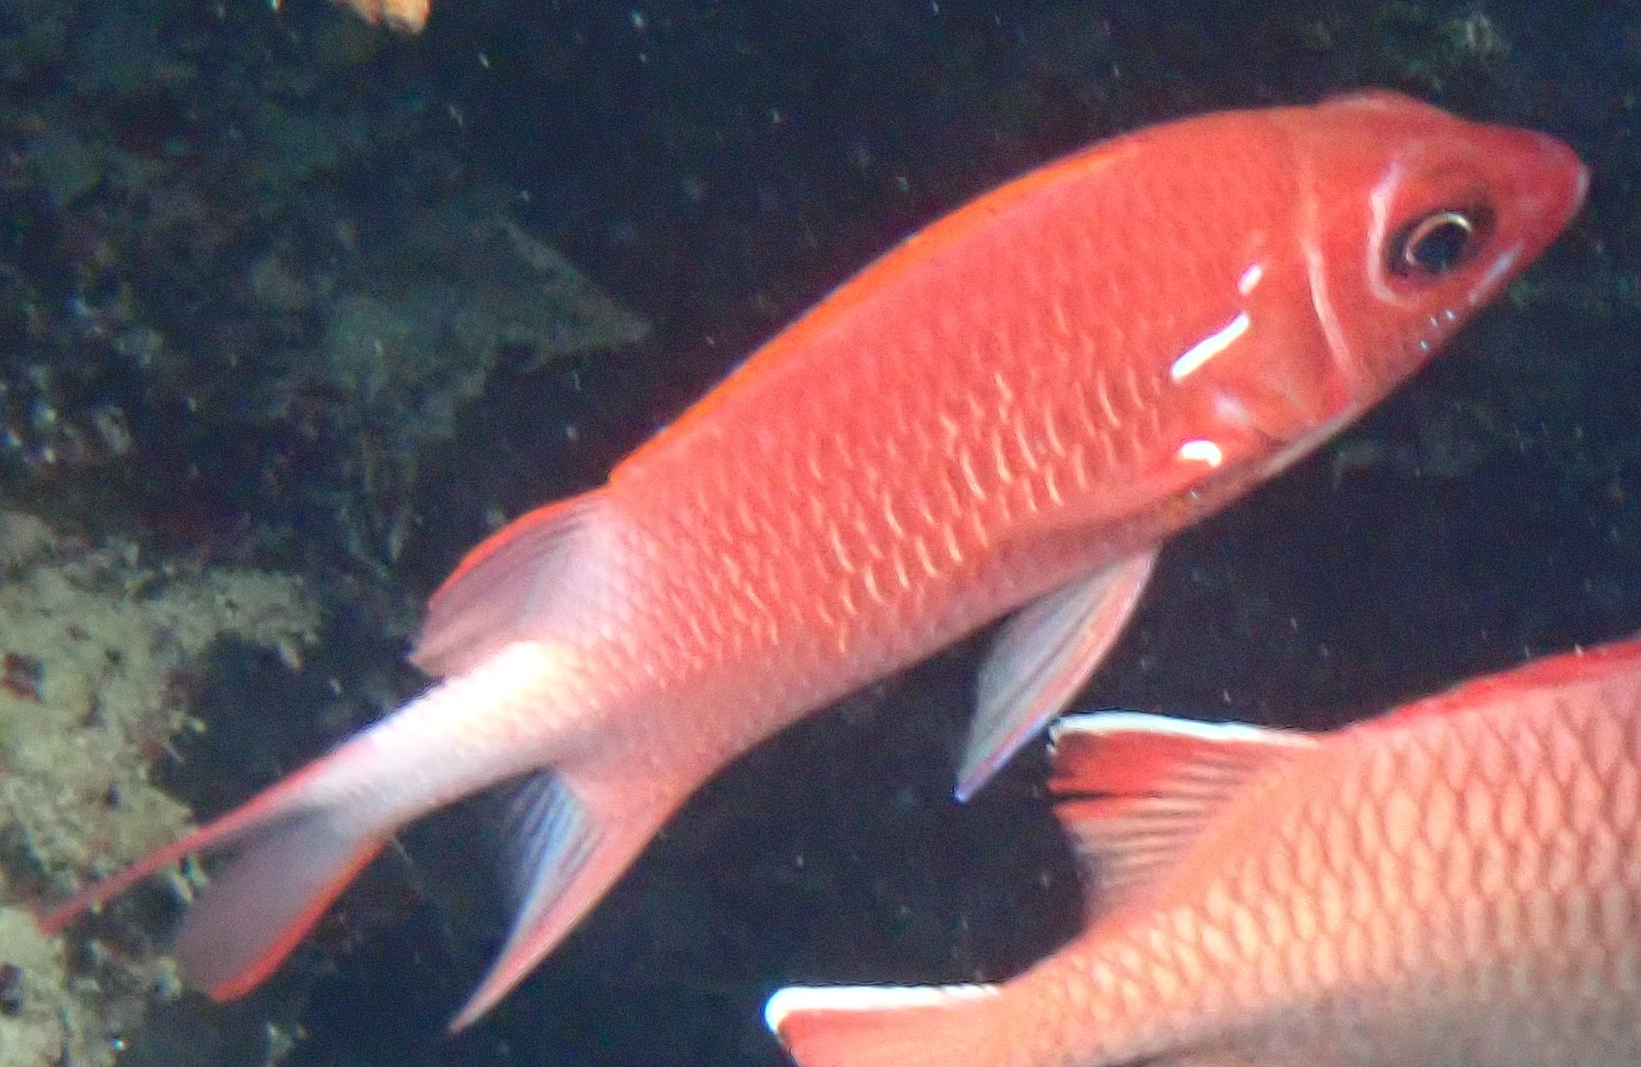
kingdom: Animalia
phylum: Chordata
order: Beryciformes
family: Holocentridae
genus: Sargocentron
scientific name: Sargocentron caudimaculatum
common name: Fanfin soldier
